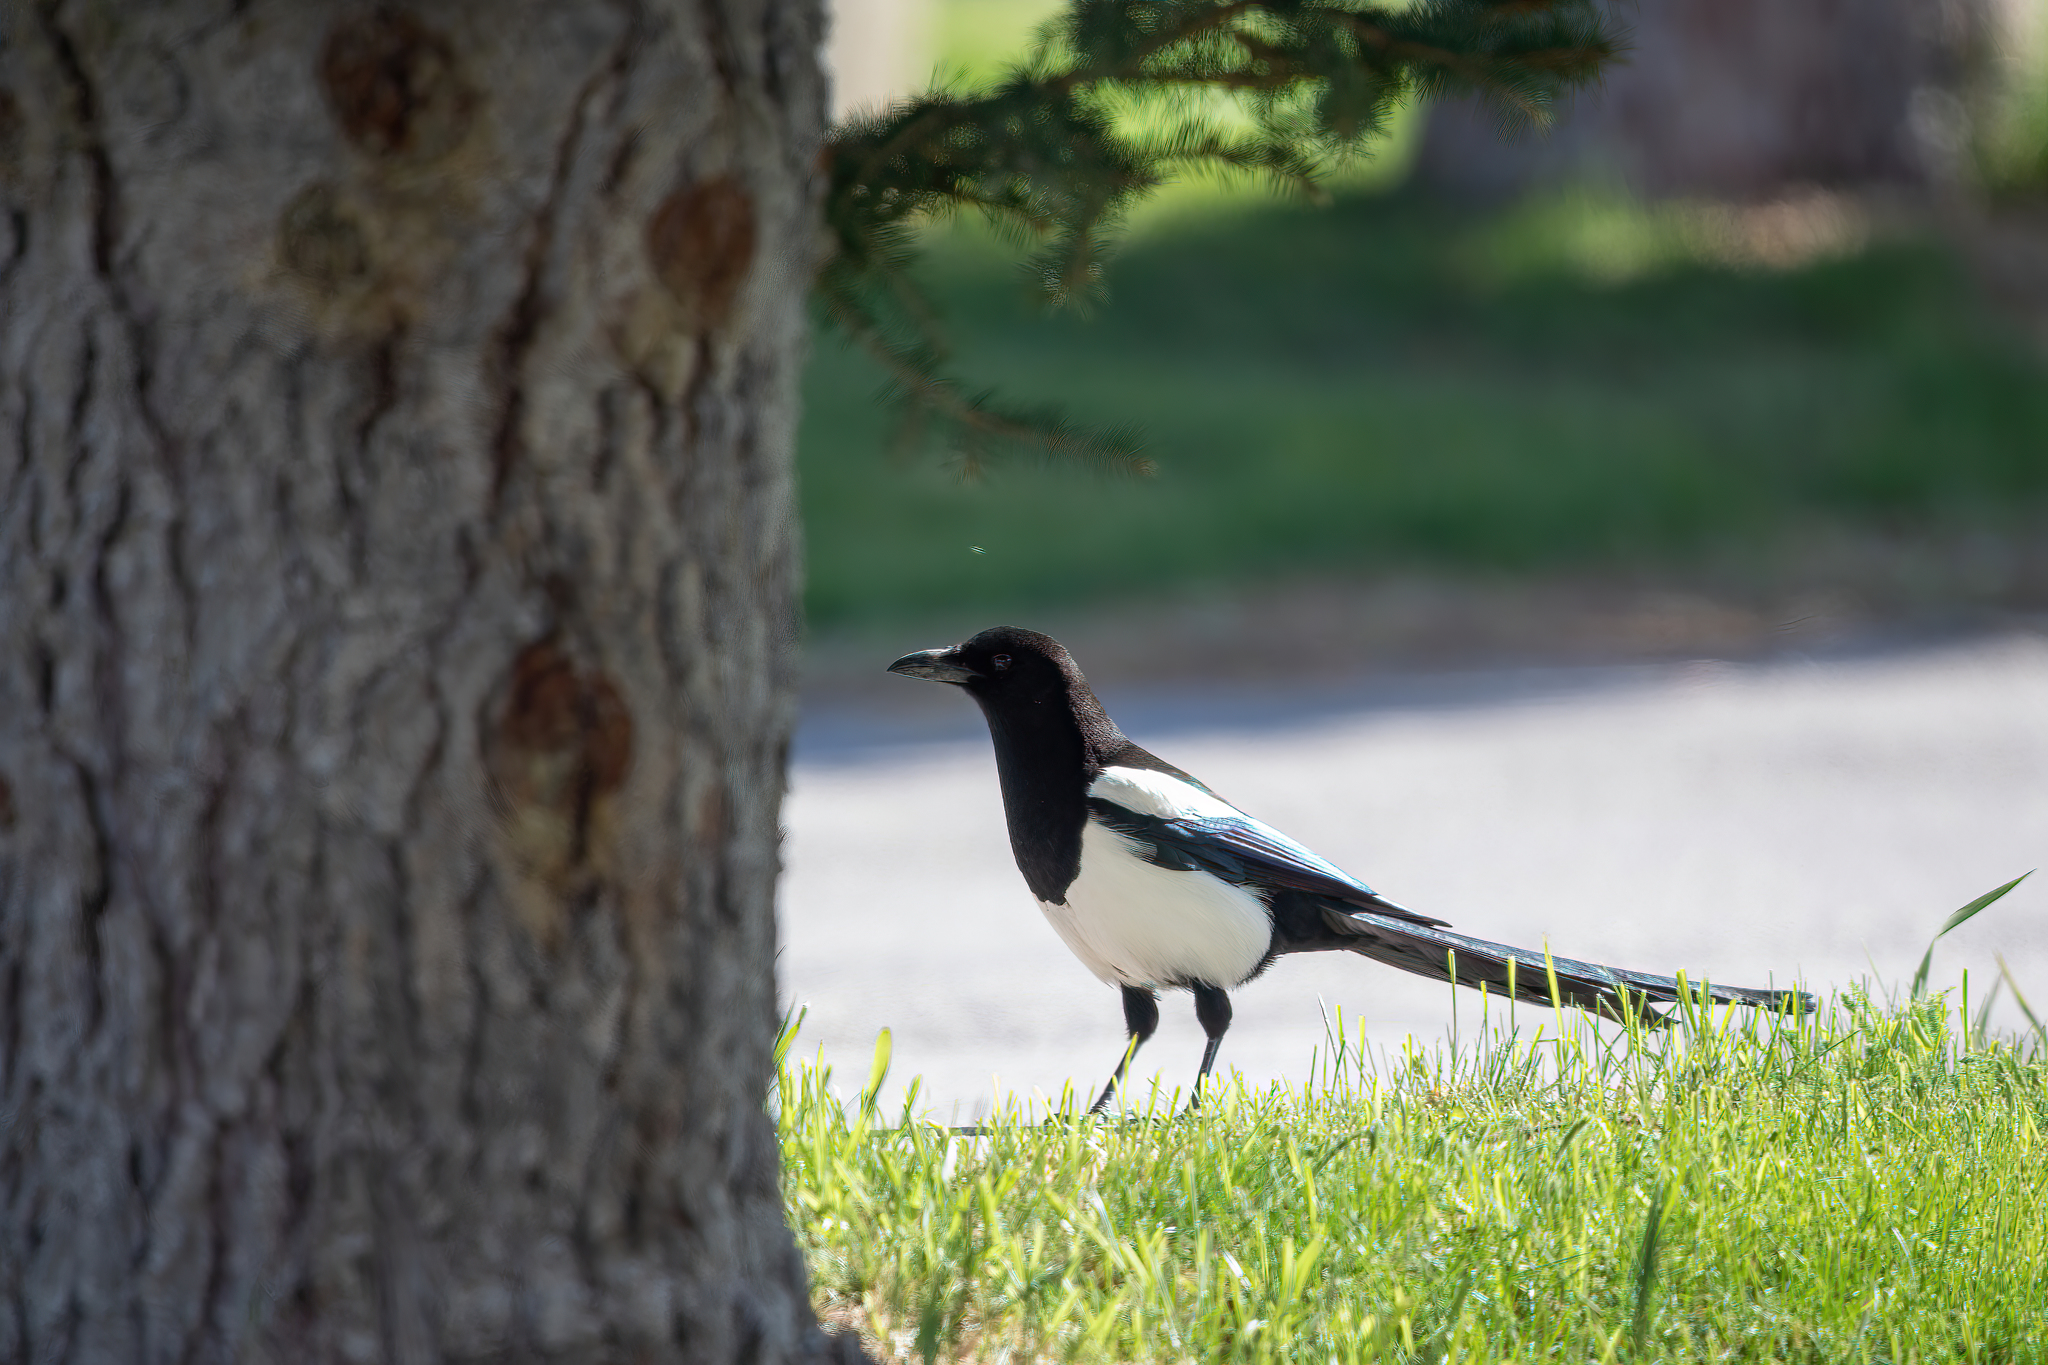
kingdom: Animalia
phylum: Chordata
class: Aves
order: Passeriformes
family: Corvidae
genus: Pica
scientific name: Pica hudsonia
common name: Black-billed magpie
